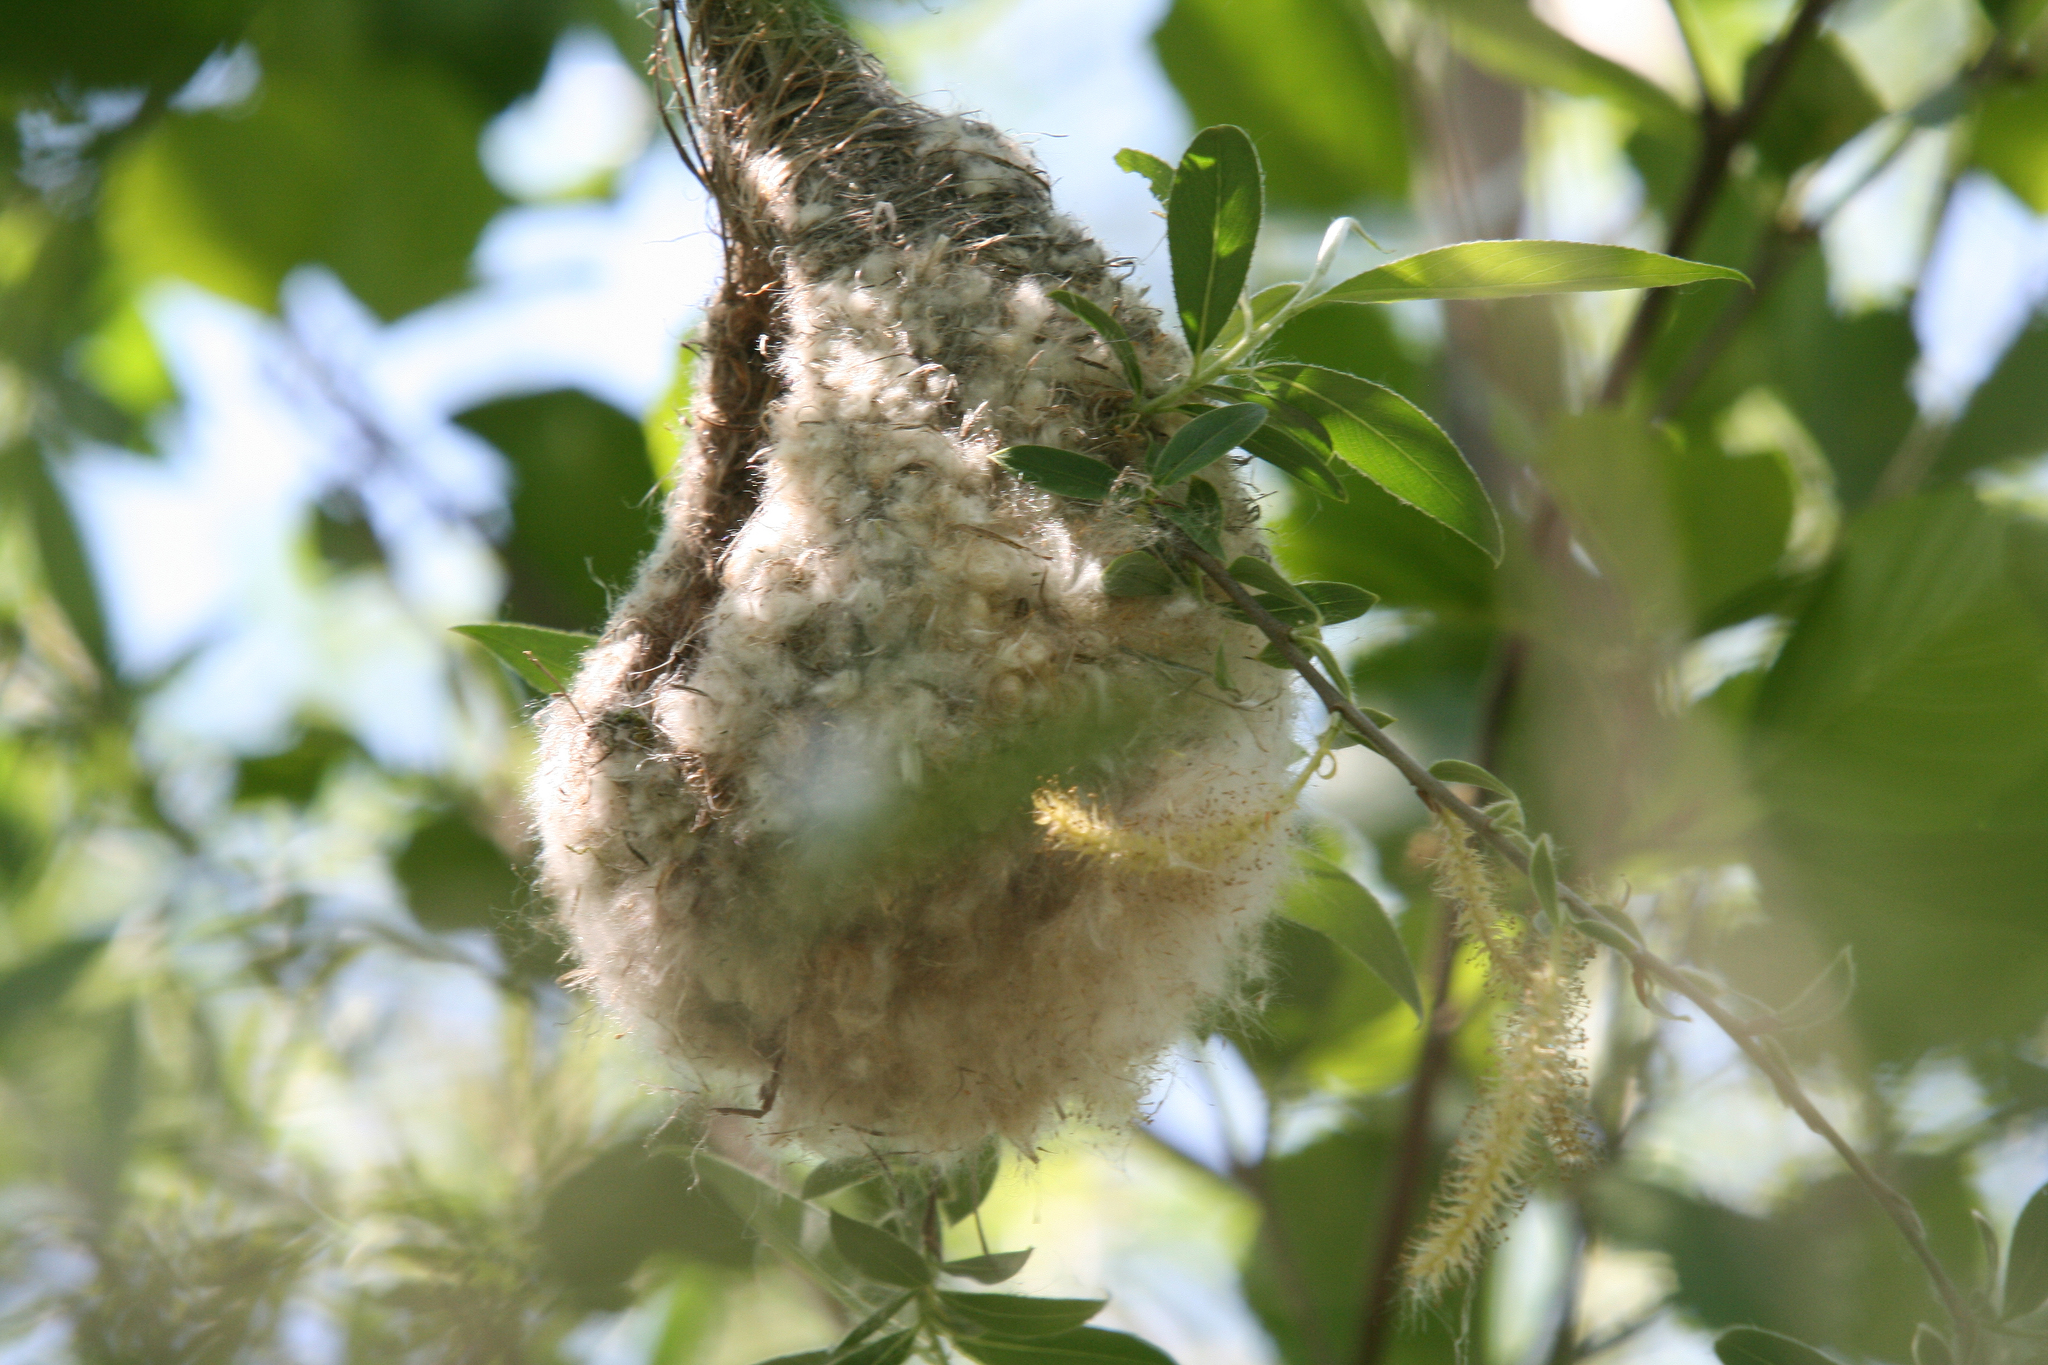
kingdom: Animalia
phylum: Chordata
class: Aves
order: Passeriformes
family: Remizidae
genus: Remiz
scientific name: Remiz pendulinus
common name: Eurasian penduline tit
